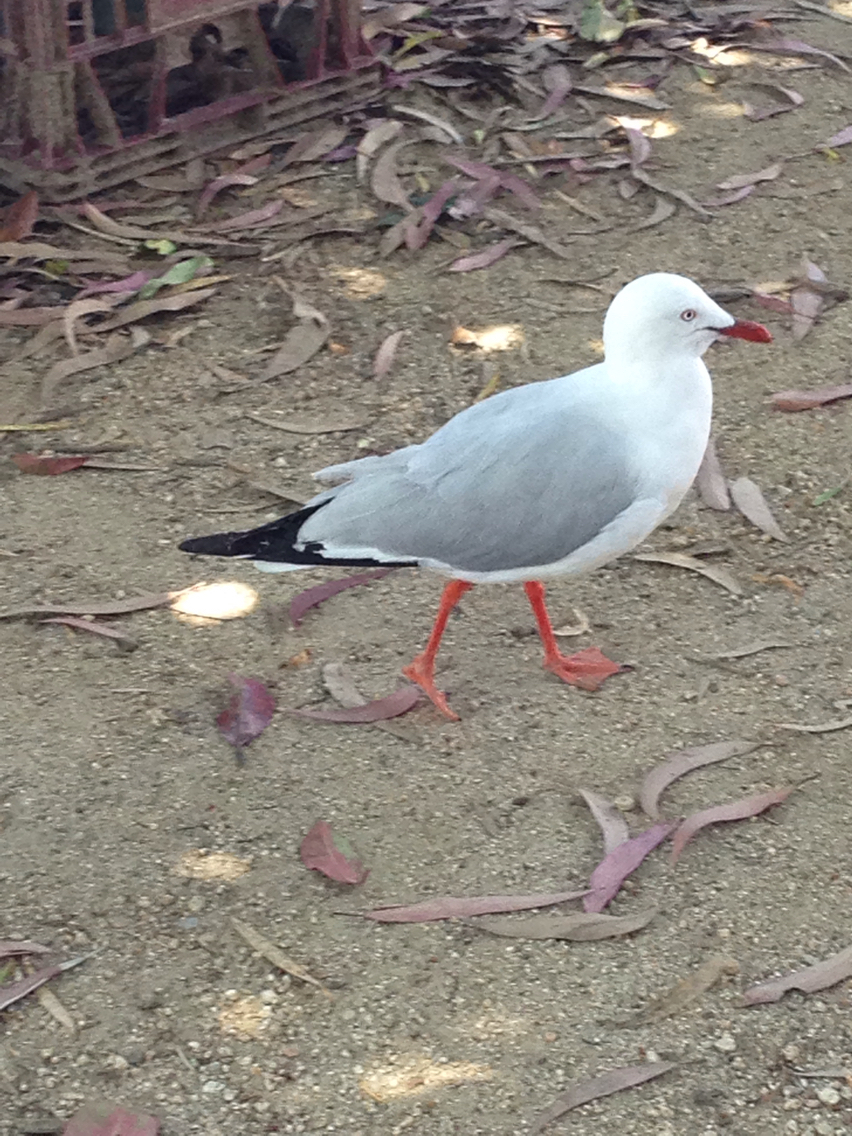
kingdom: Animalia
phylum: Chordata
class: Aves
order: Charadriiformes
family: Laridae
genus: Chroicocephalus
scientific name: Chroicocephalus novaehollandiae
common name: Silver gull
